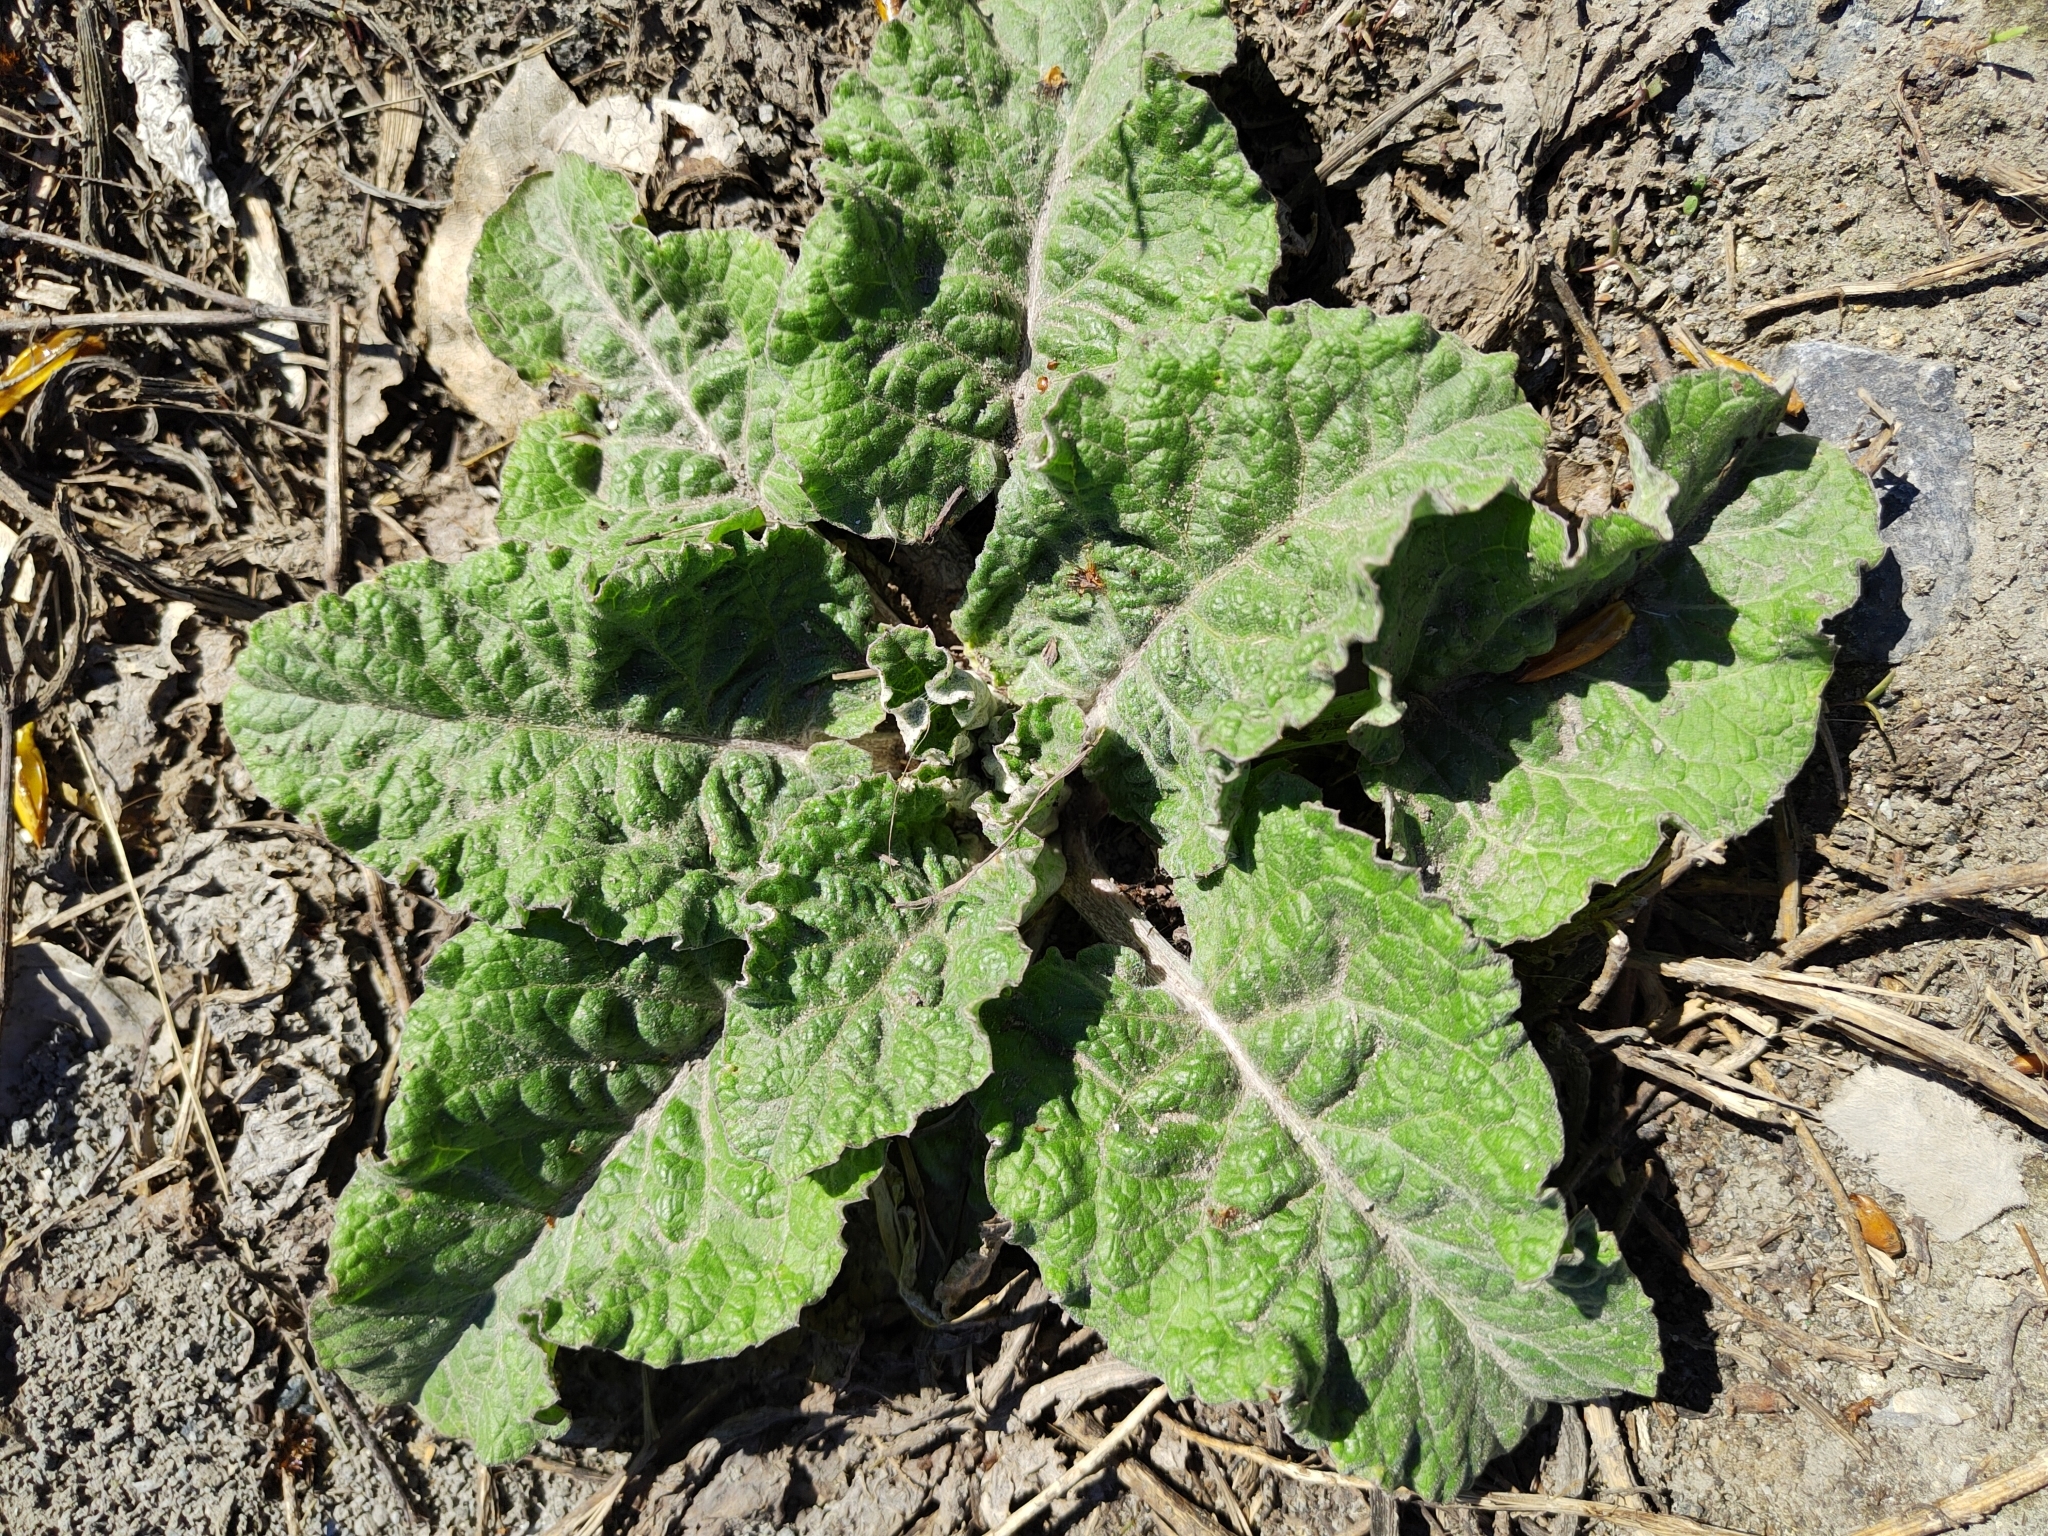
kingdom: Plantae
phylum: Tracheophyta
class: Magnoliopsida
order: Asterales
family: Asteraceae
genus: Arctium
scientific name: Arctium tomentosum
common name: Woolly burdock
